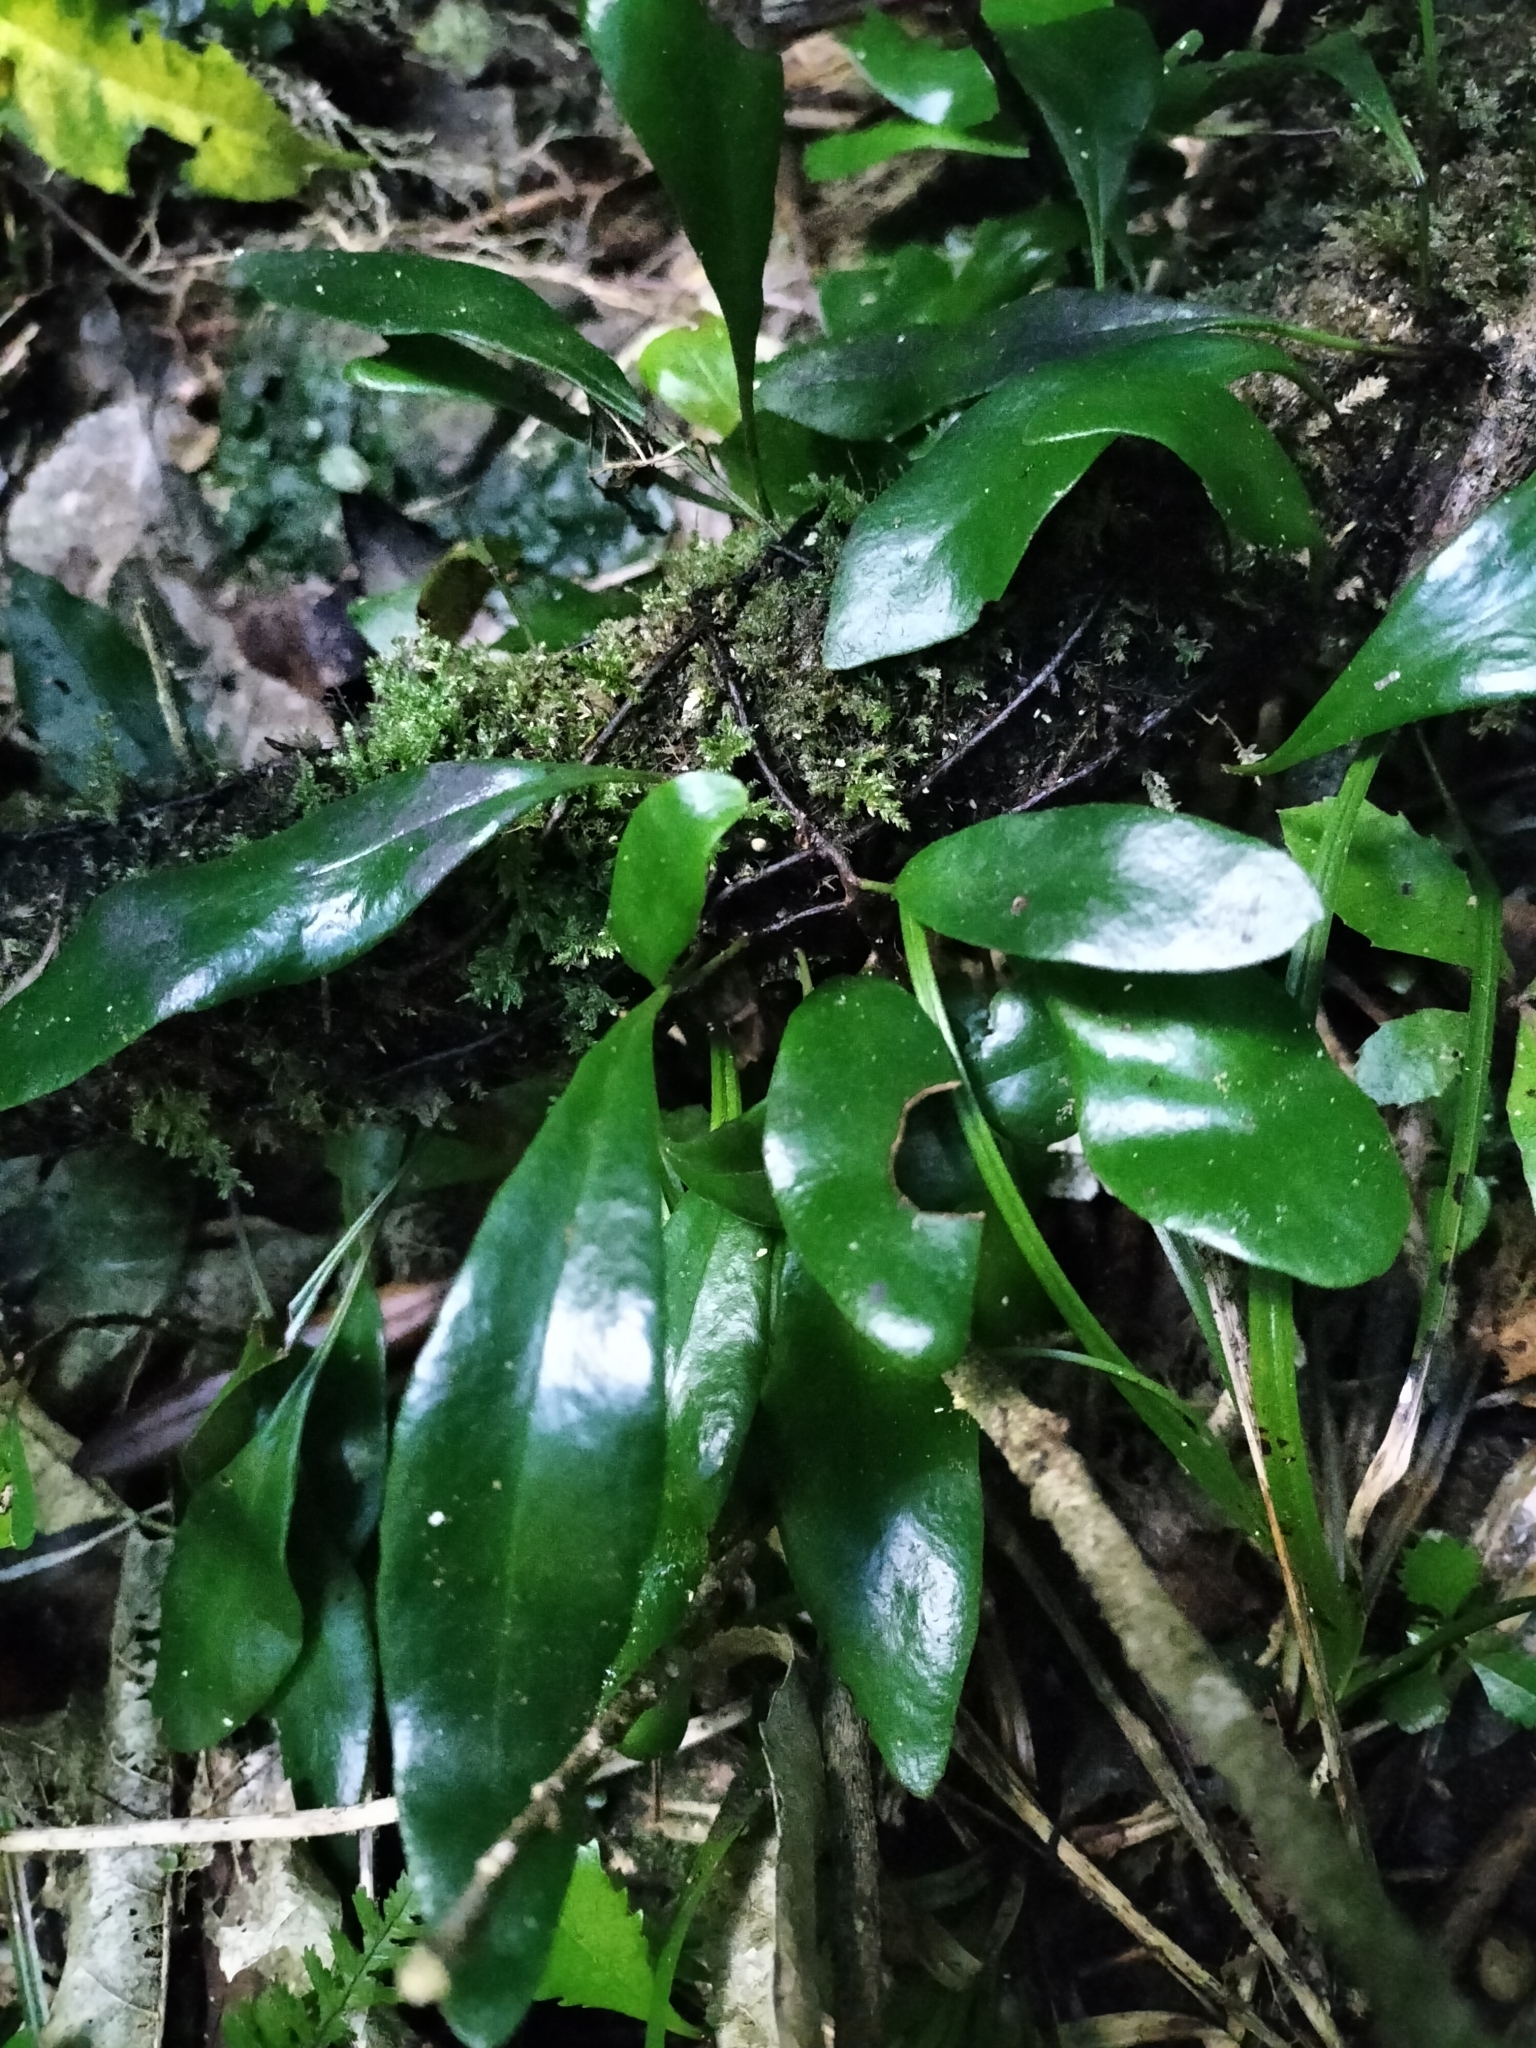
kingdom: Plantae
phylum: Tracheophyta
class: Polypodiopsida
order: Polypodiales
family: Polypodiaceae
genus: Pyrrosia
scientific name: Pyrrosia eleagnifolia
